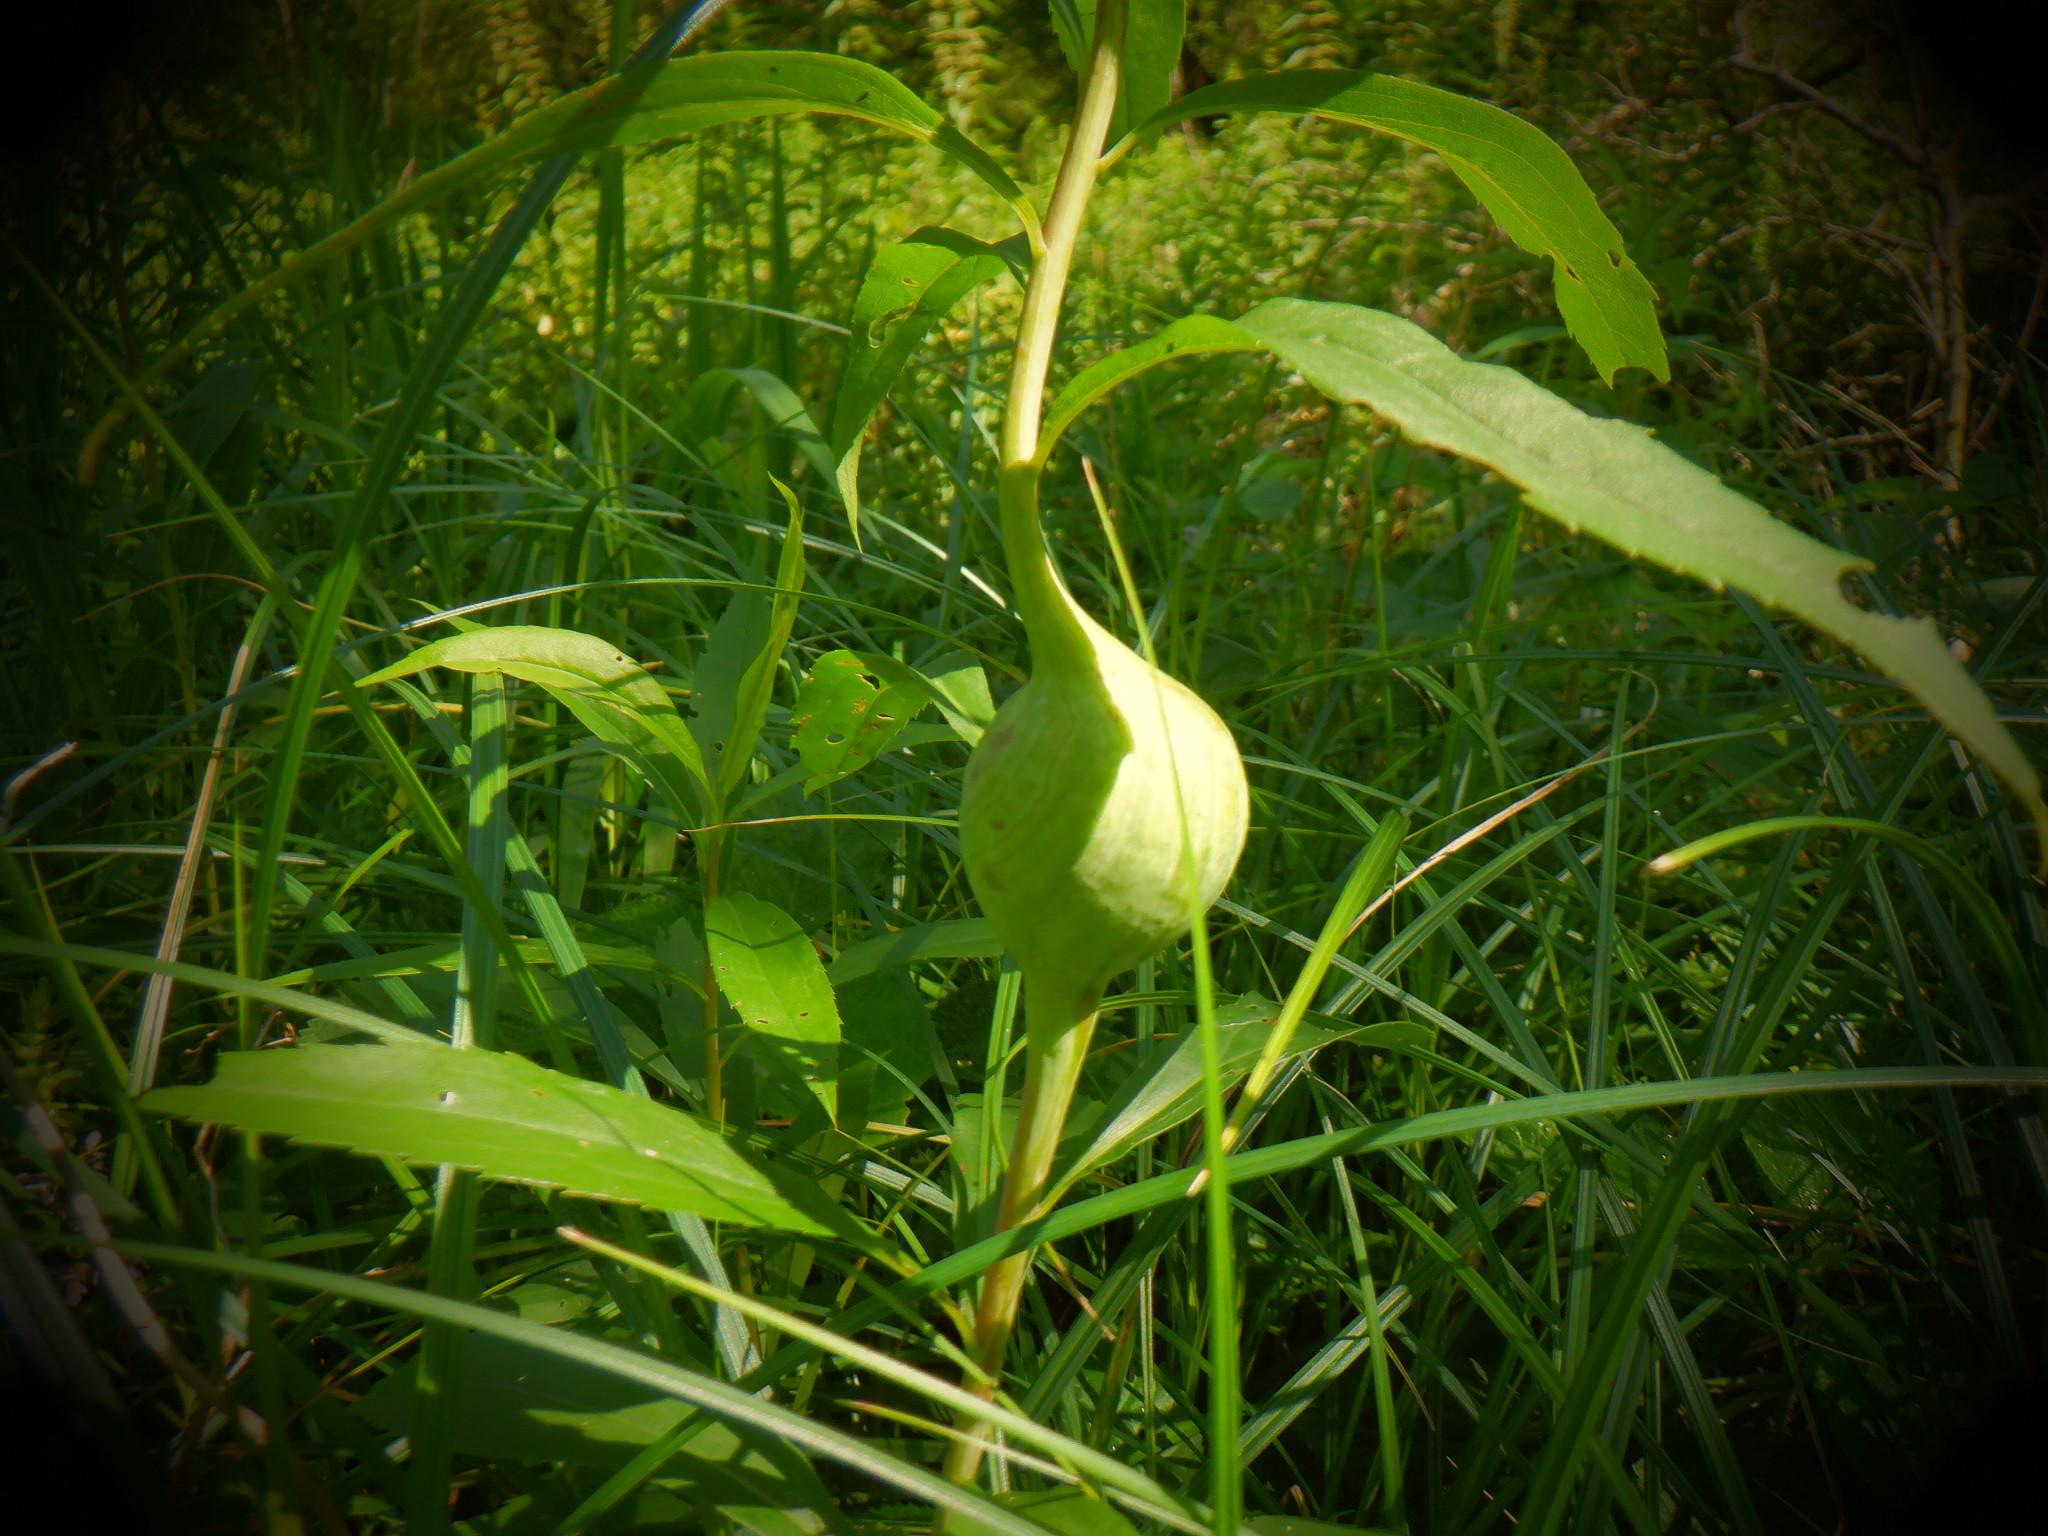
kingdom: Animalia
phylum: Arthropoda
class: Insecta
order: Diptera
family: Tephritidae
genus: Eurosta
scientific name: Eurosta solidaginis
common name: Goldenrod gall fly
